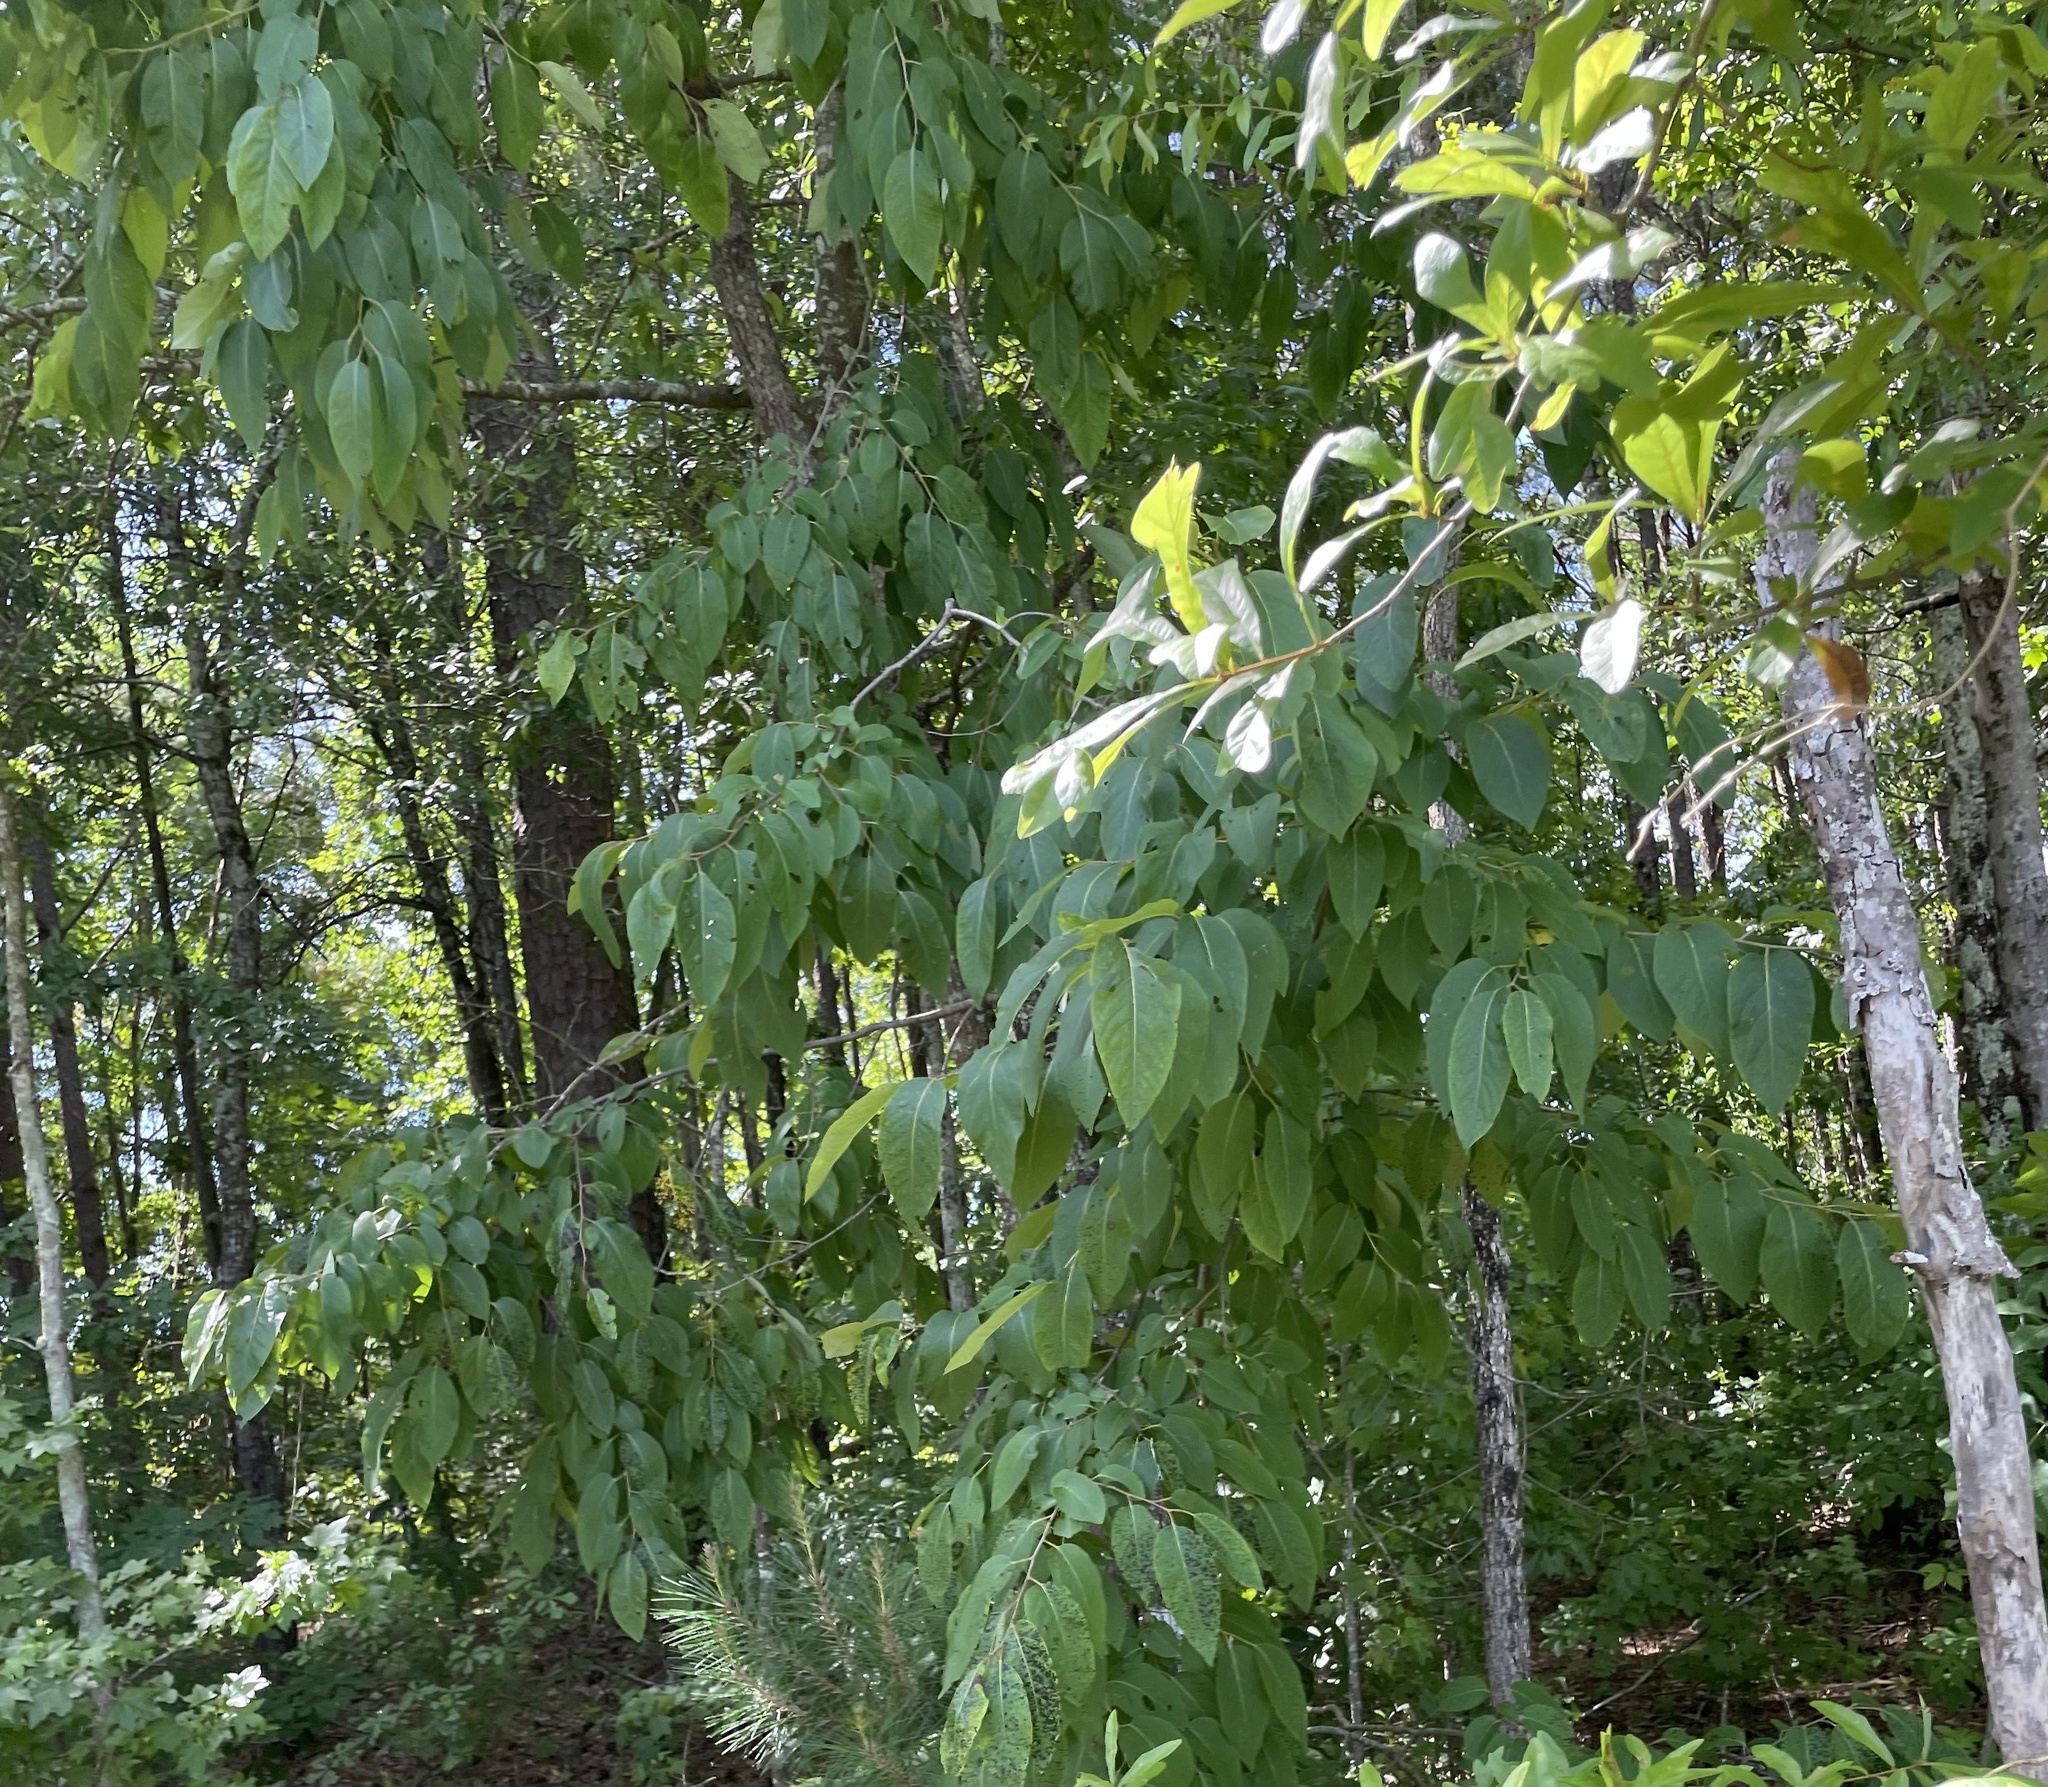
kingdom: Plantae
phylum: Tracheophyta
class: Magnoliopsida
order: Ericales
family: Ebenaceae
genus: Diospyros
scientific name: Diospyros virginiana
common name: Persimmon
